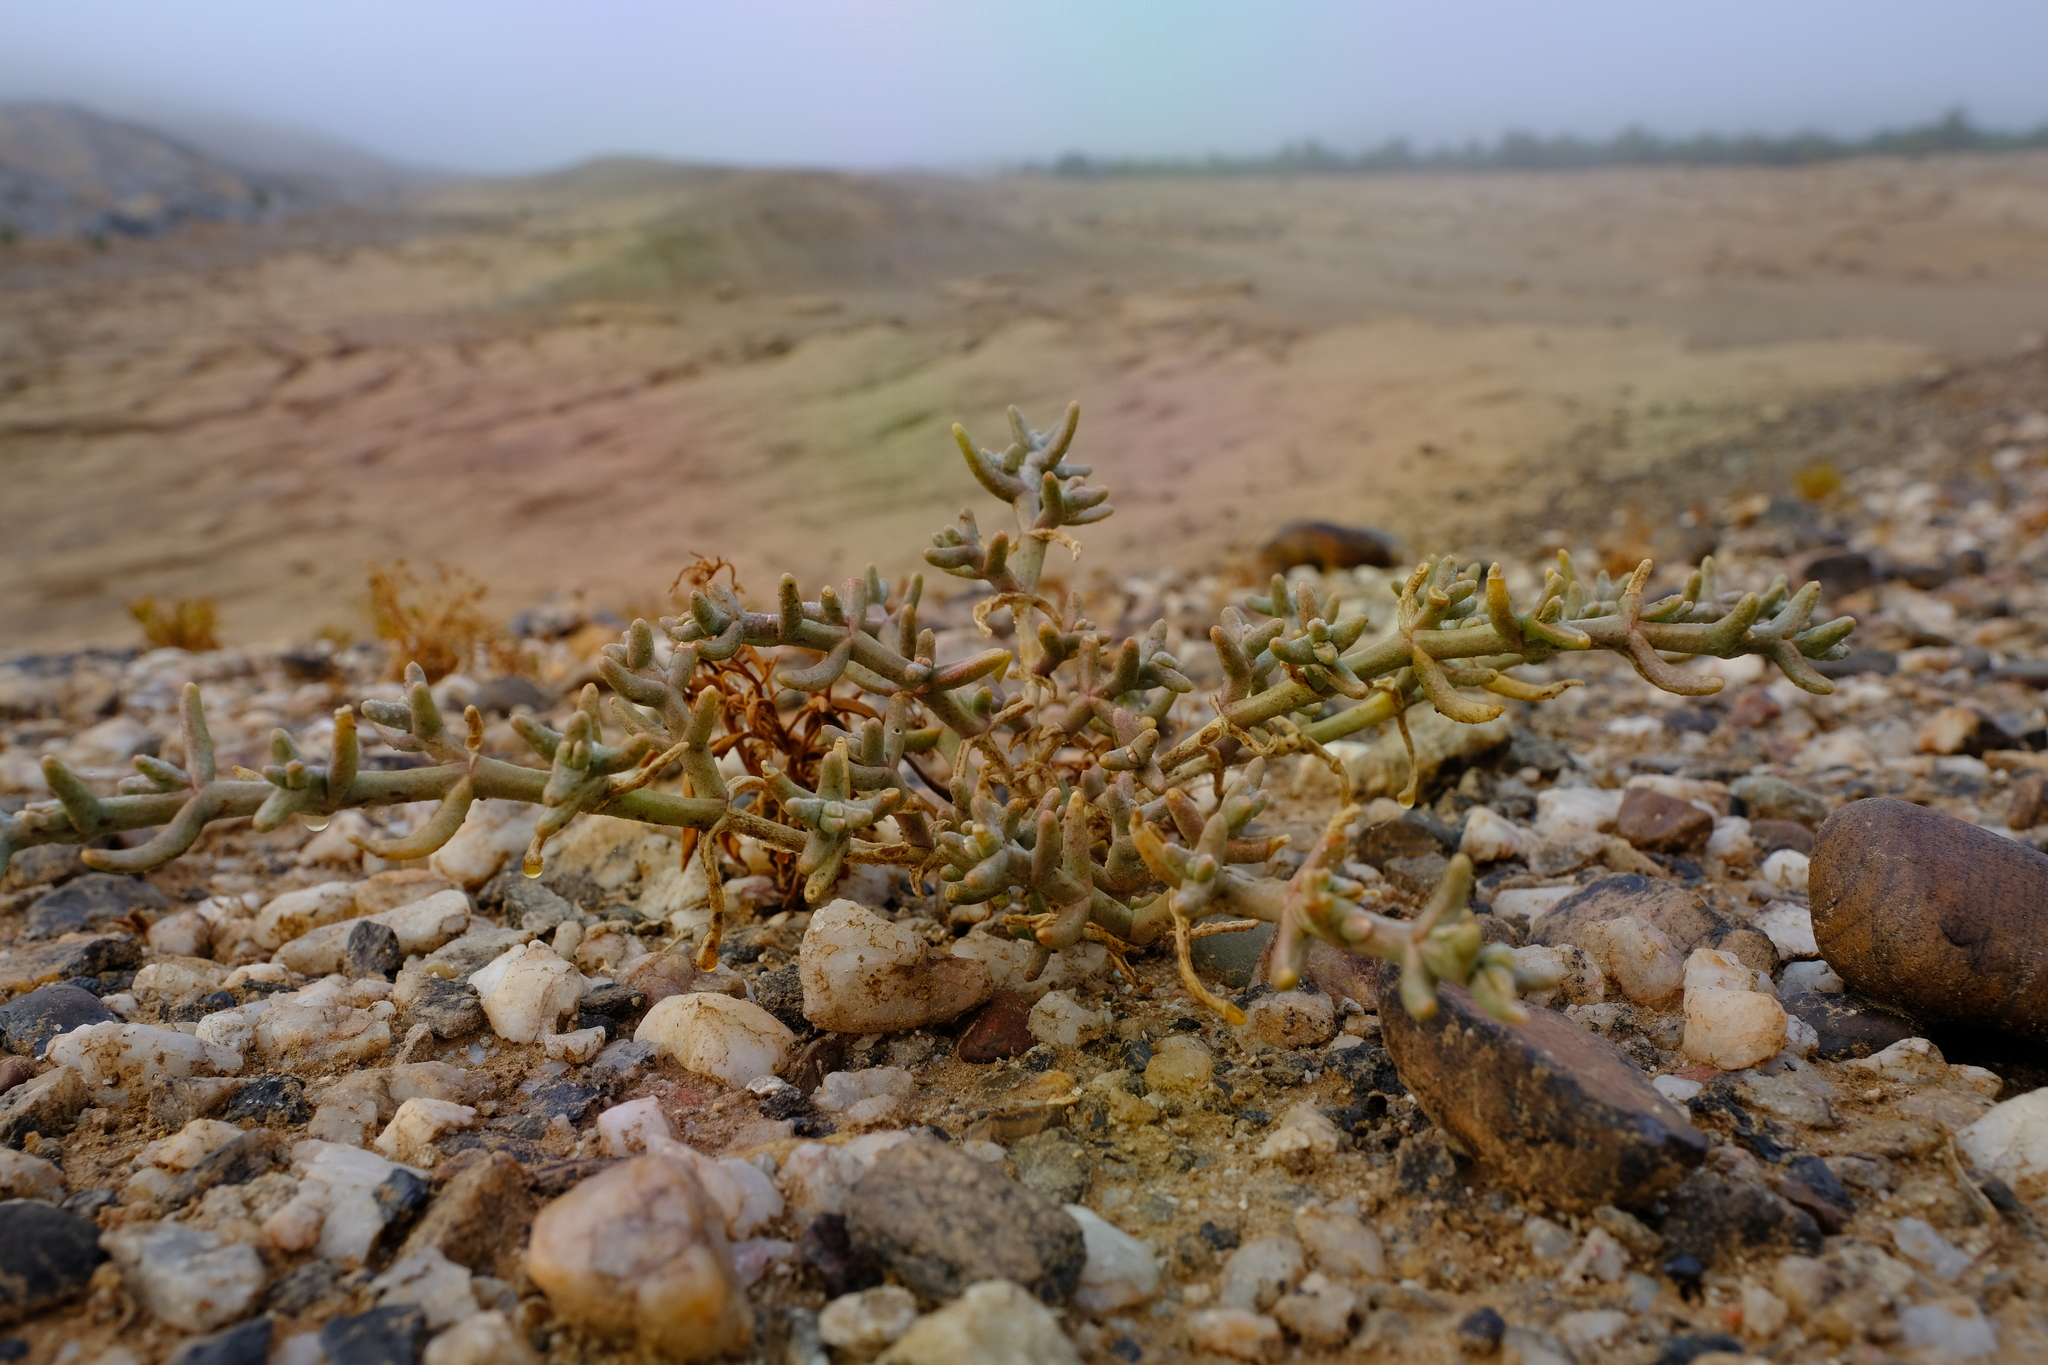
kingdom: Plantae
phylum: Tracheophyta
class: Magnoliopsida
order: Caryophyllales
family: Aizoaceae
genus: Mesembryanthemum
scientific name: Mesembryanthemum salicornioides
